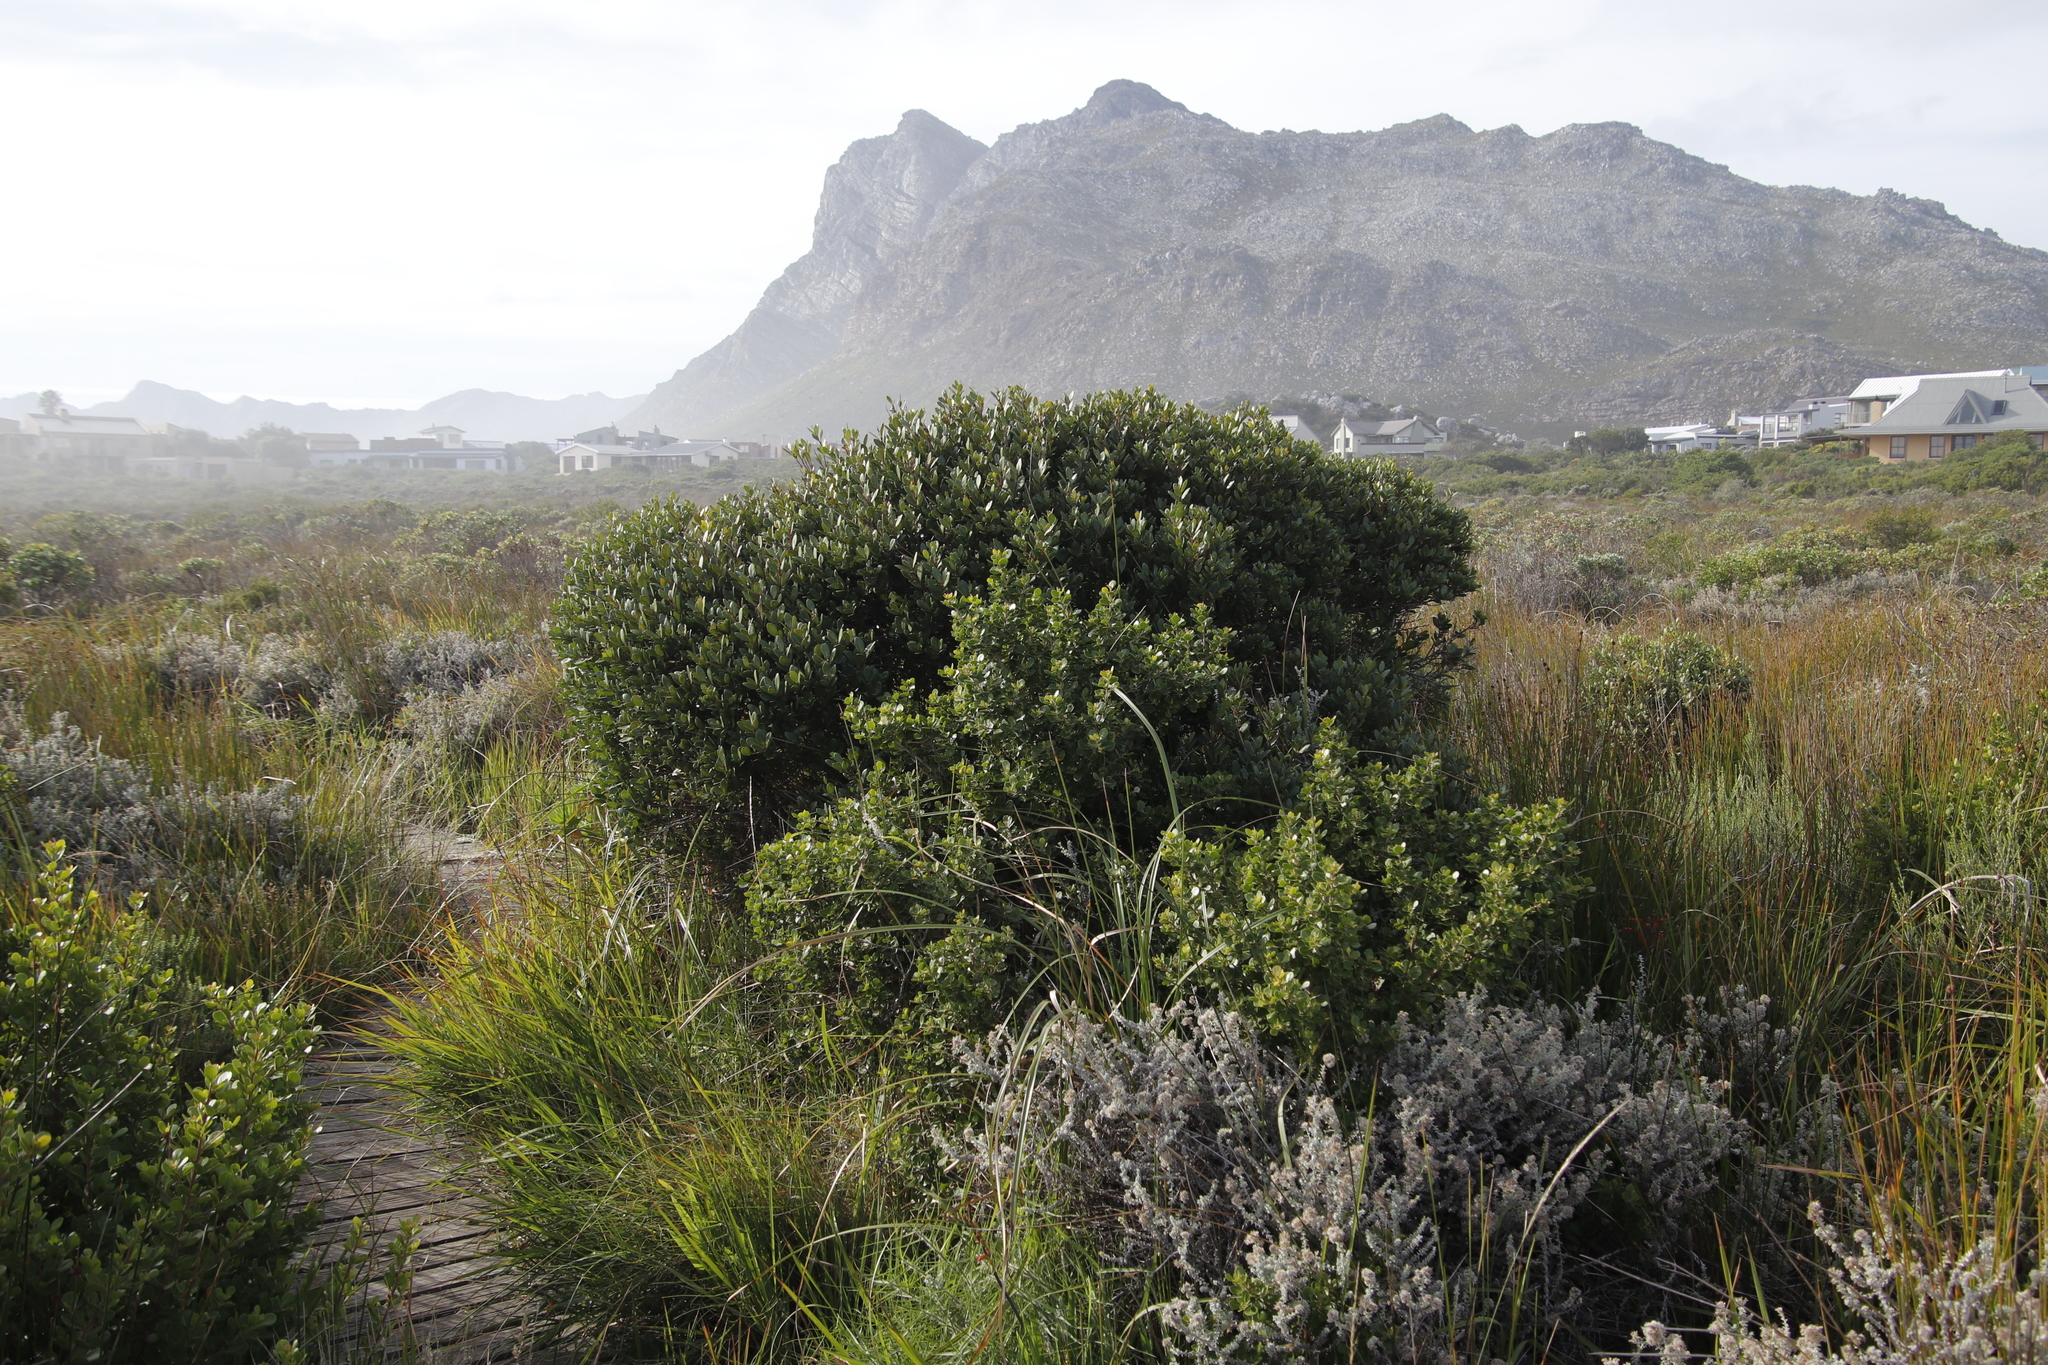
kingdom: Plantae
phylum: Tracheophyta
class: Magnoliopsida
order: Ericales
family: Ebenaceae
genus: Euclea
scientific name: Euclea racemosa
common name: Dune guarri
